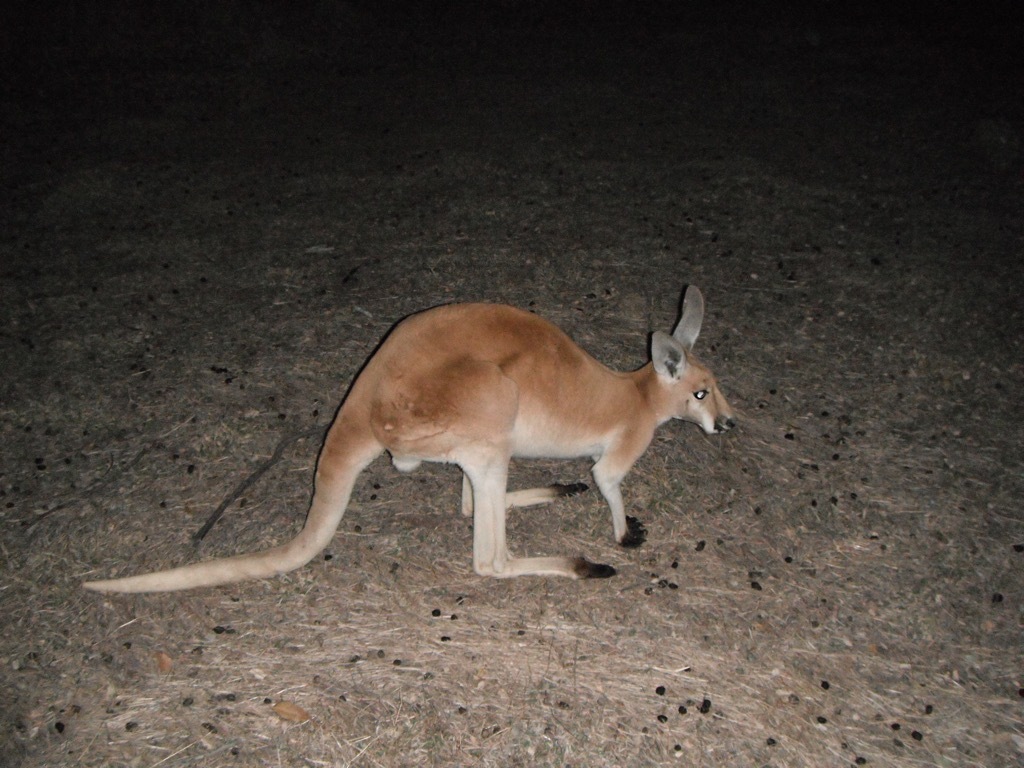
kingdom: Animalia
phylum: Chordata
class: Mammalia
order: Diprotodontia
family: Macropodidae
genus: Macropus
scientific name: Macropus rufus
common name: Red kangaroo
